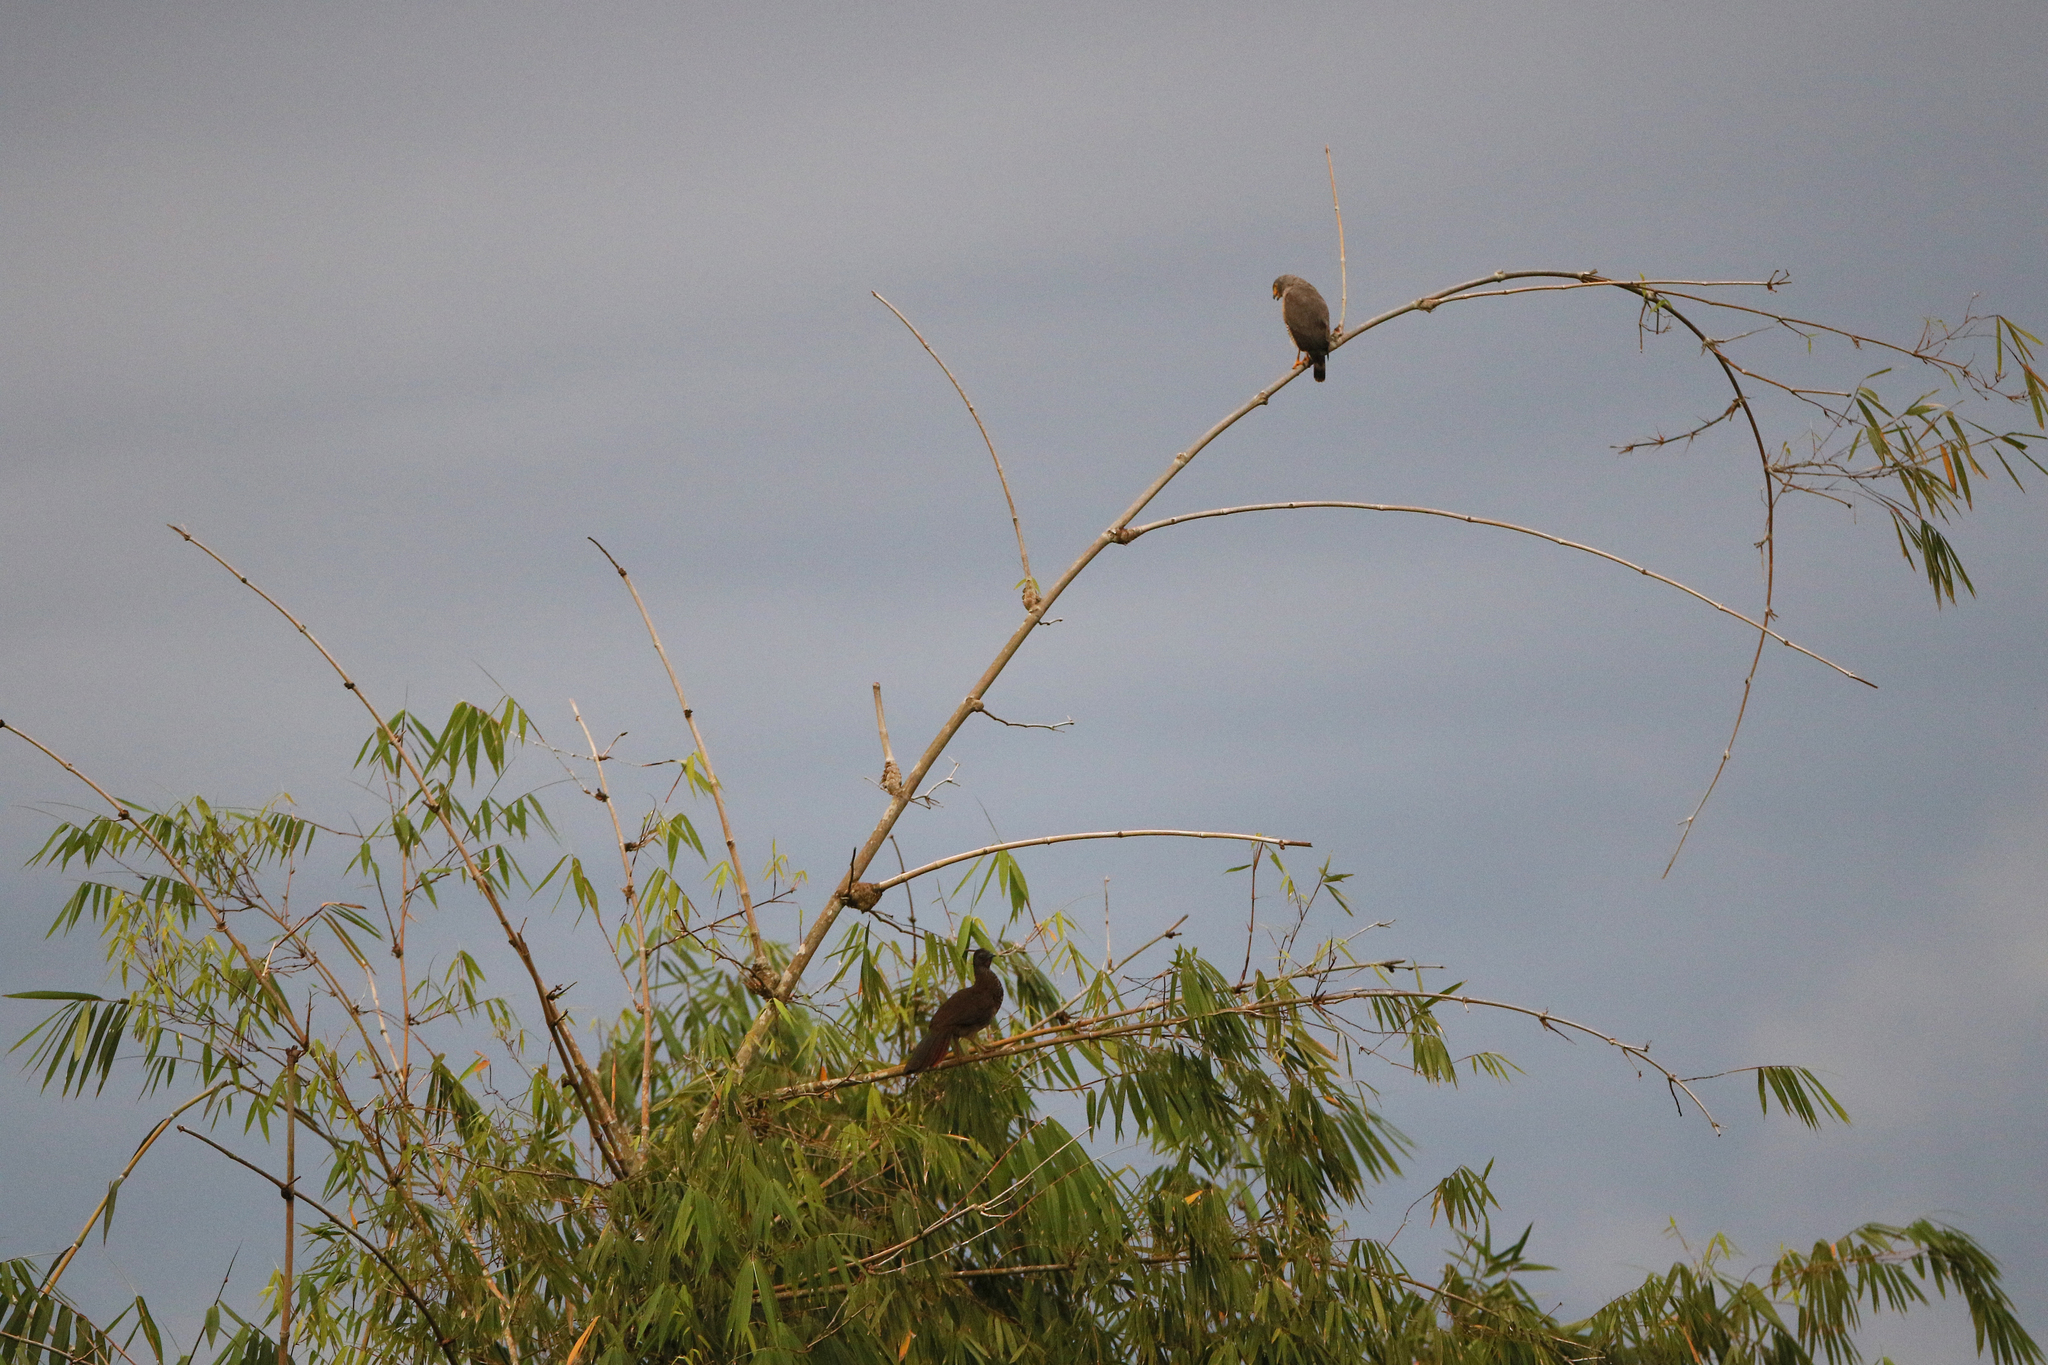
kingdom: Animalia
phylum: Chordata
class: Aves
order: Accipitriformes
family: Accipitridae
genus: Rupornis
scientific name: Rupornis magnirostris
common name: Roadside hawk
